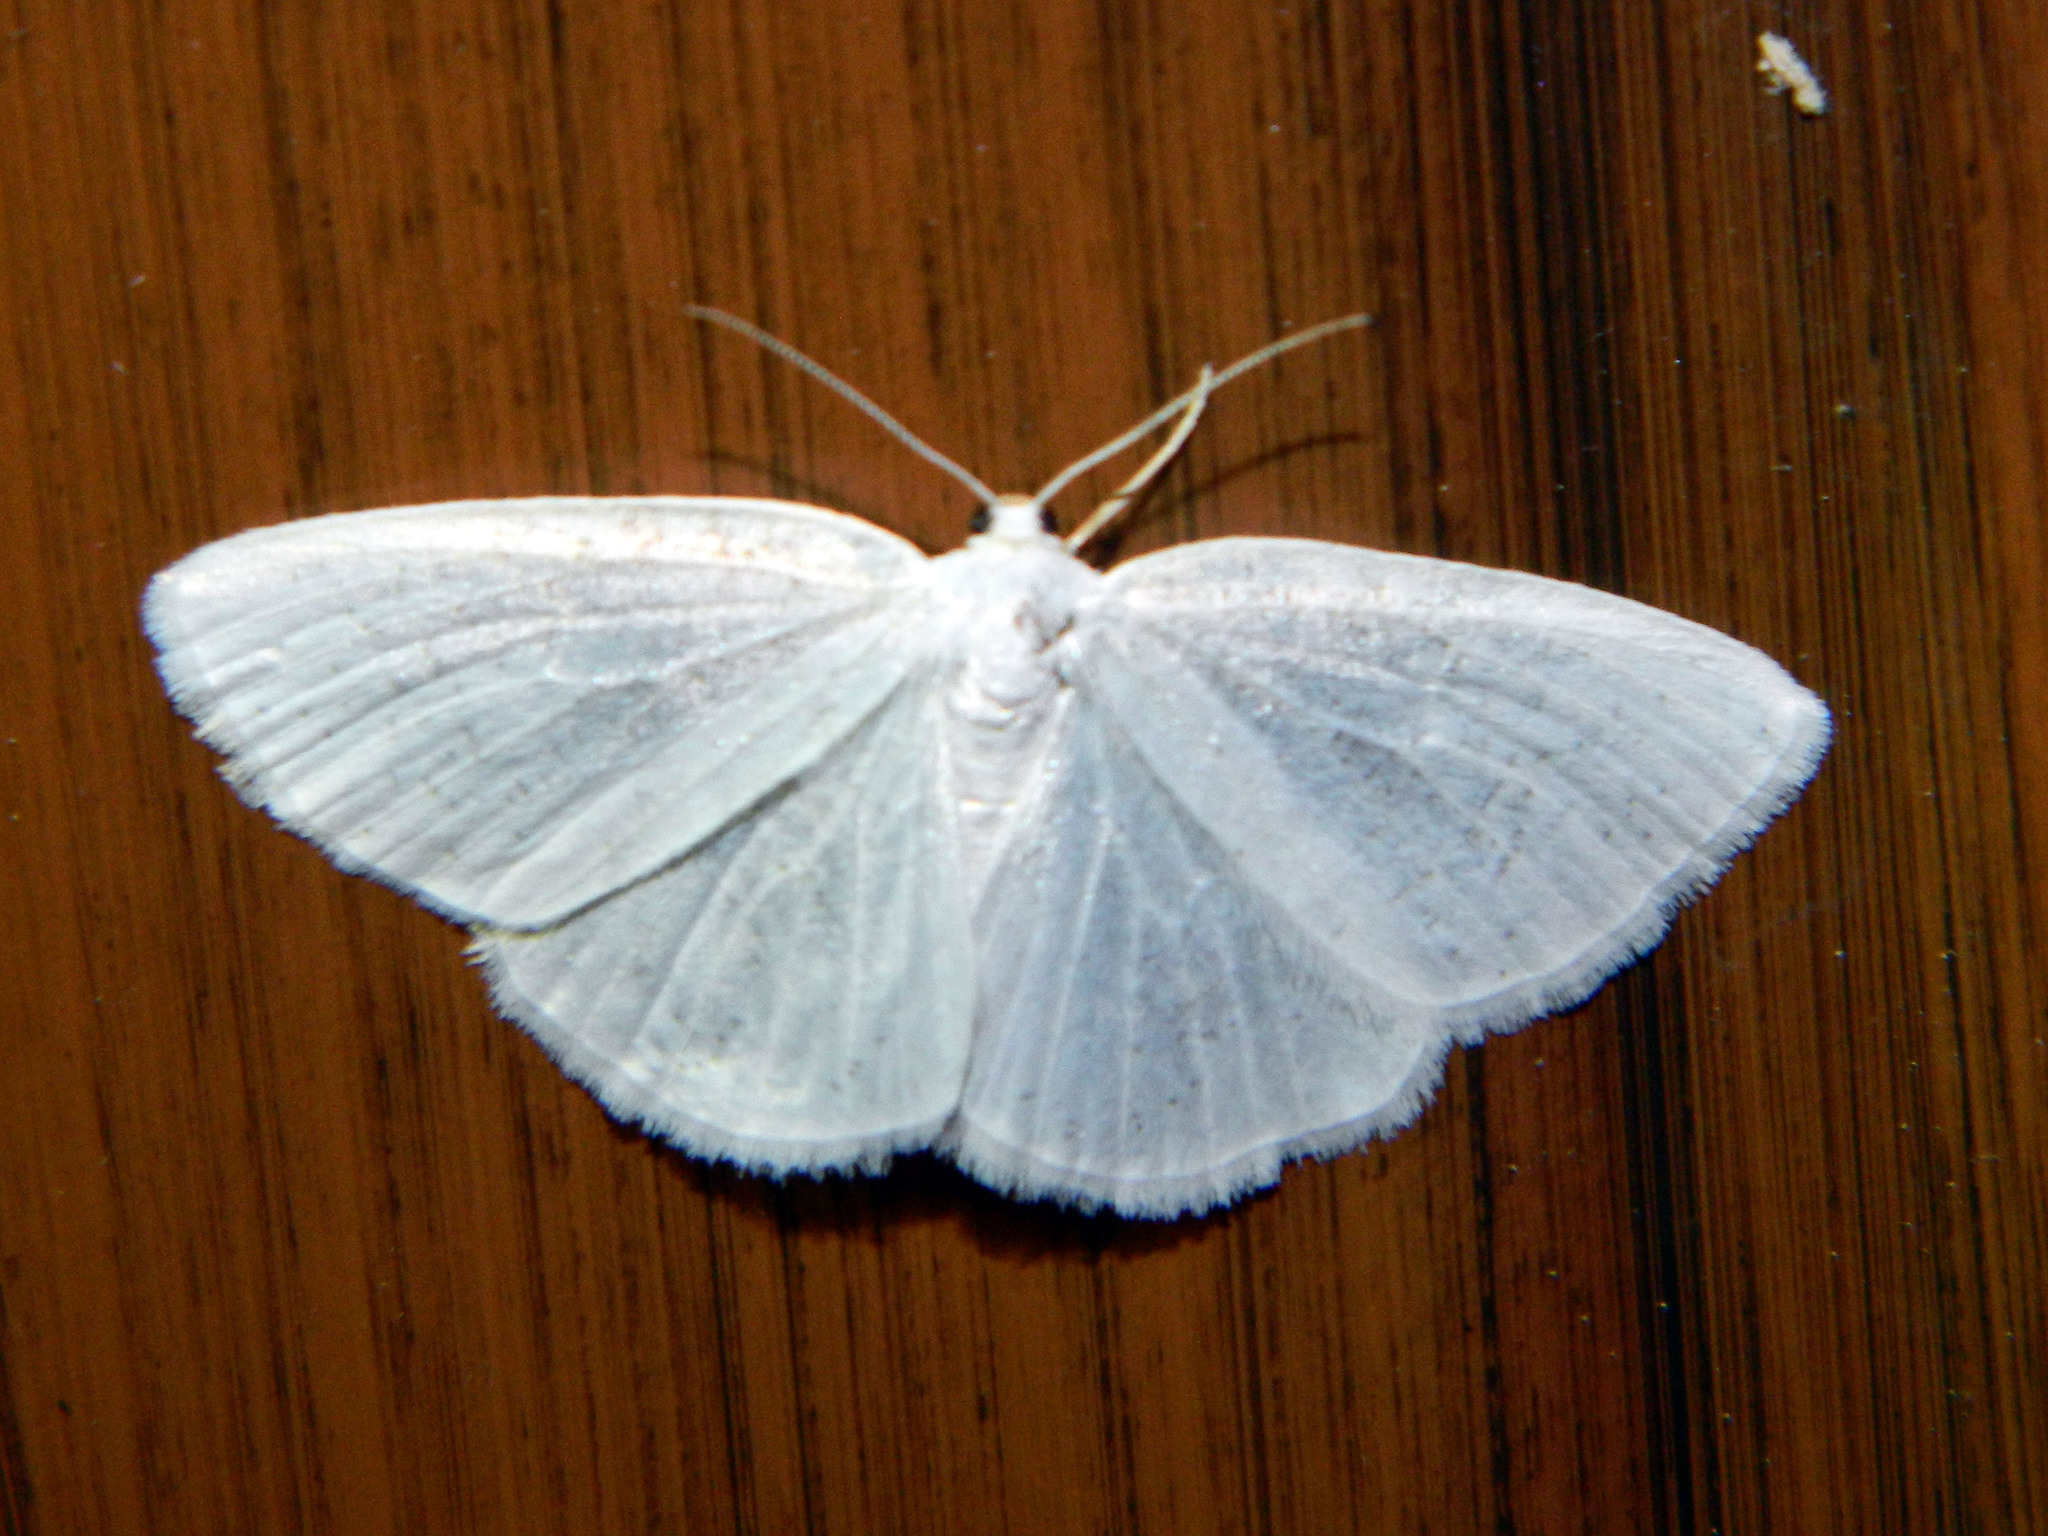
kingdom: Animalia
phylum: Arthropoda
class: Insecta
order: Lepidoptera
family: Geometridae
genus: Cabera
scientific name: Cabera variolaria
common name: Pink-striped willow spanworm
